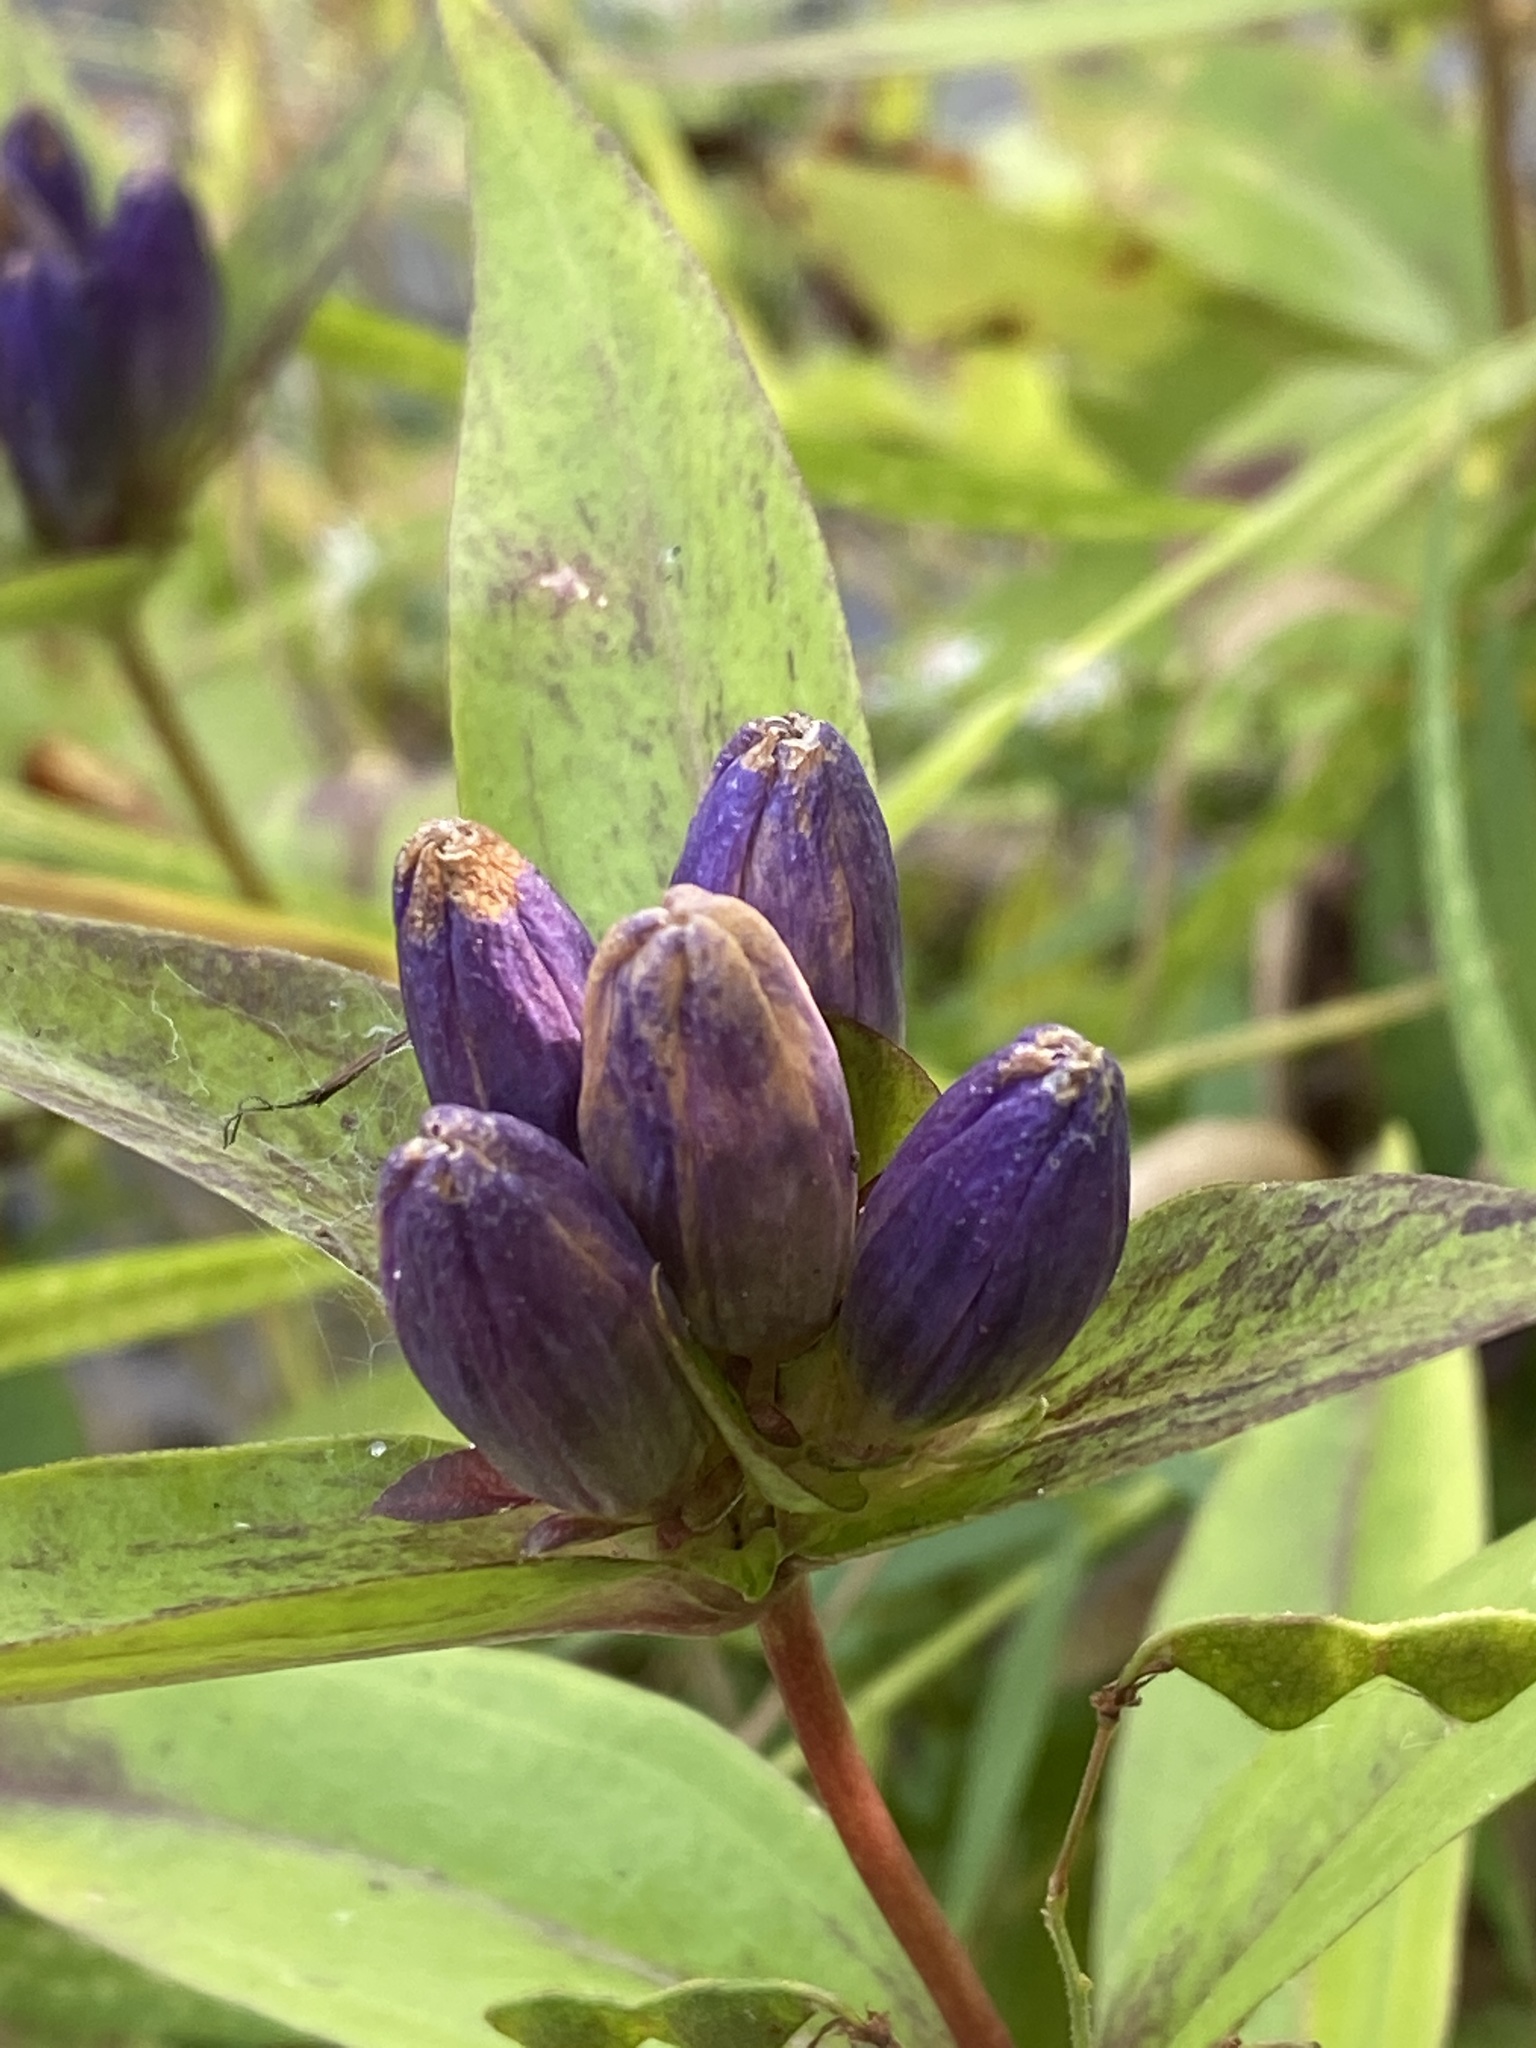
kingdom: Plantae
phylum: Tracheophyta
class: Magnoliopsida
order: Gentianales
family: Gentianaceae
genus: Gentiana
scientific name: Gentiana clausa
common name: Blind gentian
